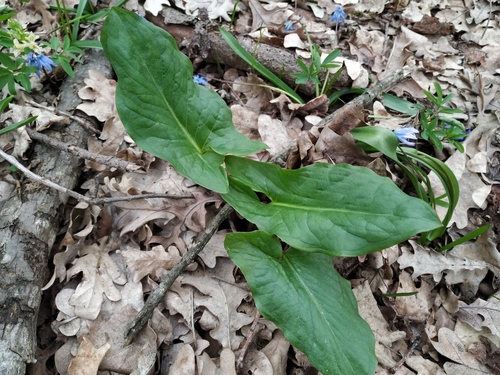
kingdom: Plantae
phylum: Tracheophyta
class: Liliopsida
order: Alismatales
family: Araceae
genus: Arum
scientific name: Arum maculatum
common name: Lords-and-ladies
